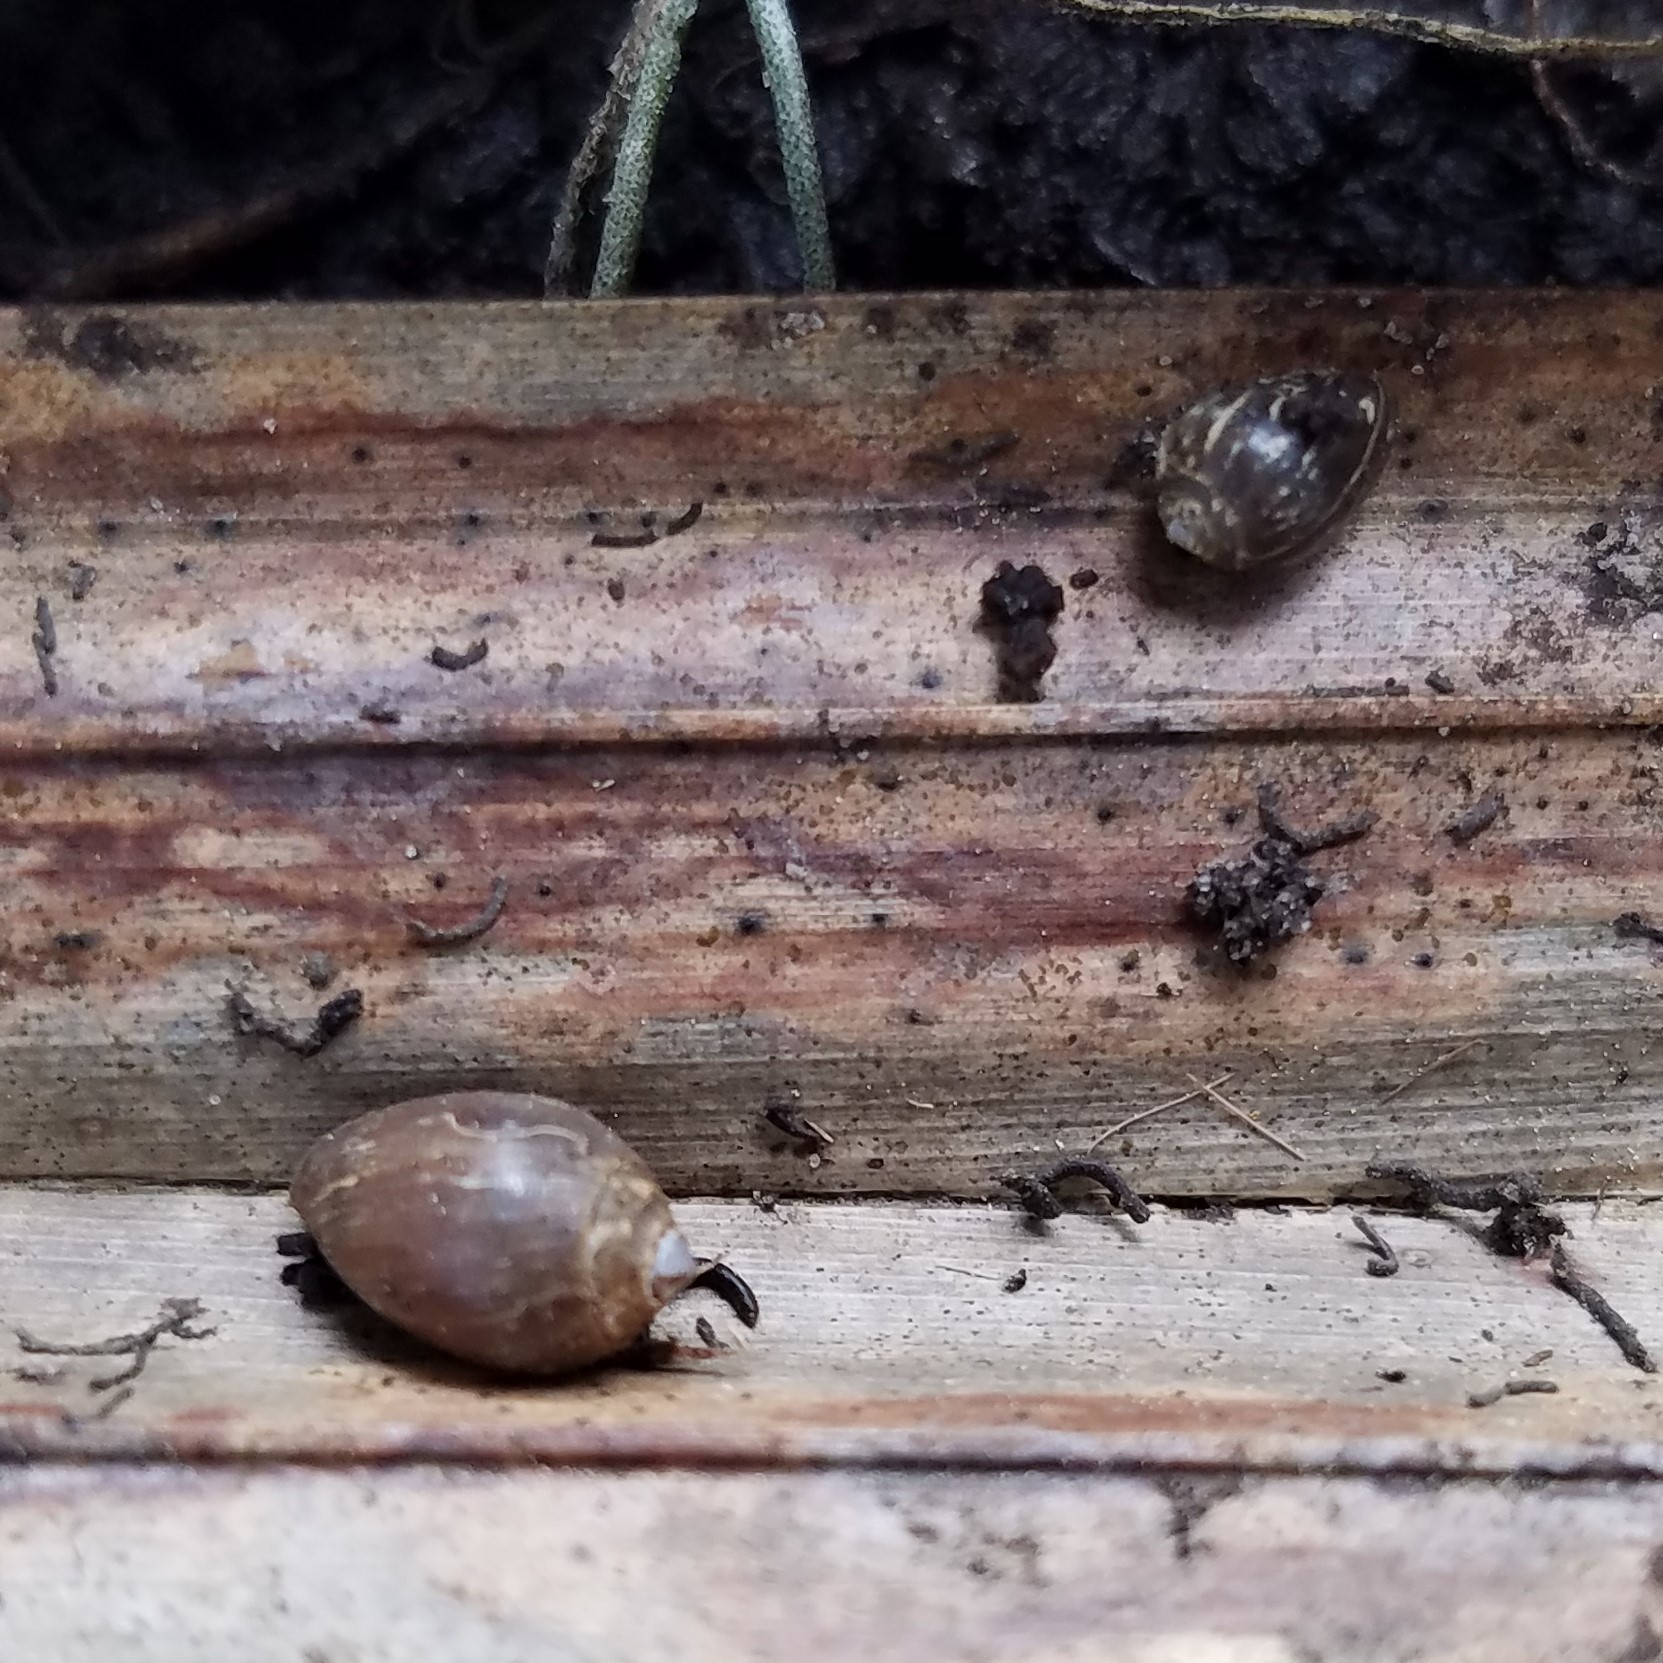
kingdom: Animalia
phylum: Mollusca
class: Gastropoda
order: Ellobiida
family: Ellobiidae
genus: Melampus
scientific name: Melampus bidentatus
